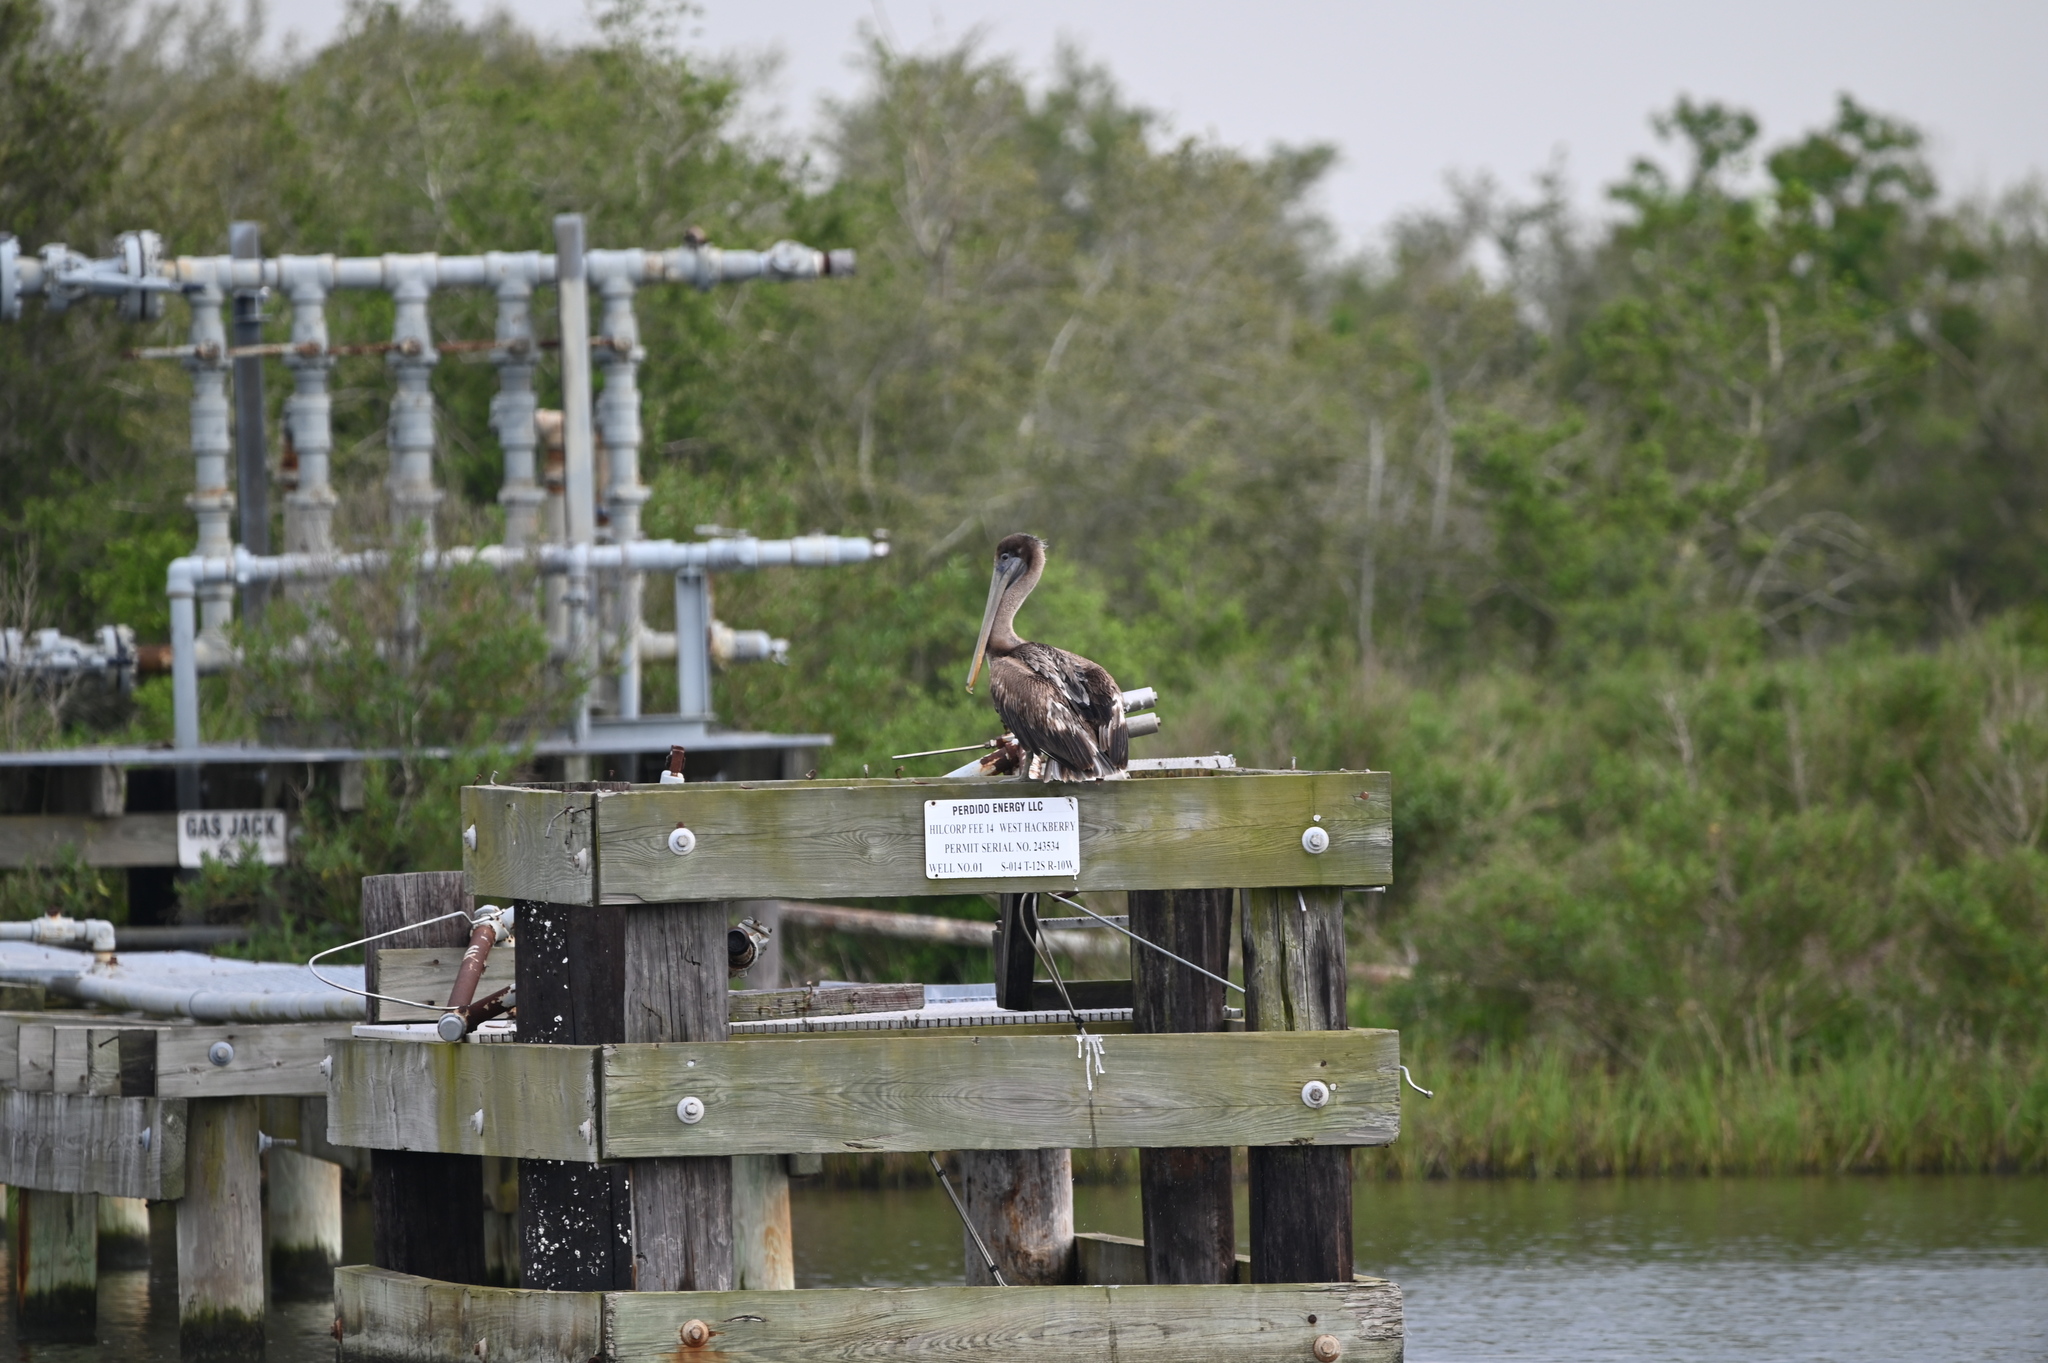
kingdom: Animalia
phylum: Chordata
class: Aves
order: Pelecaniformes
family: Pelecanidae
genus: Pelecanus
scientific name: Pelecanus occidentalis
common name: Brown pelican
